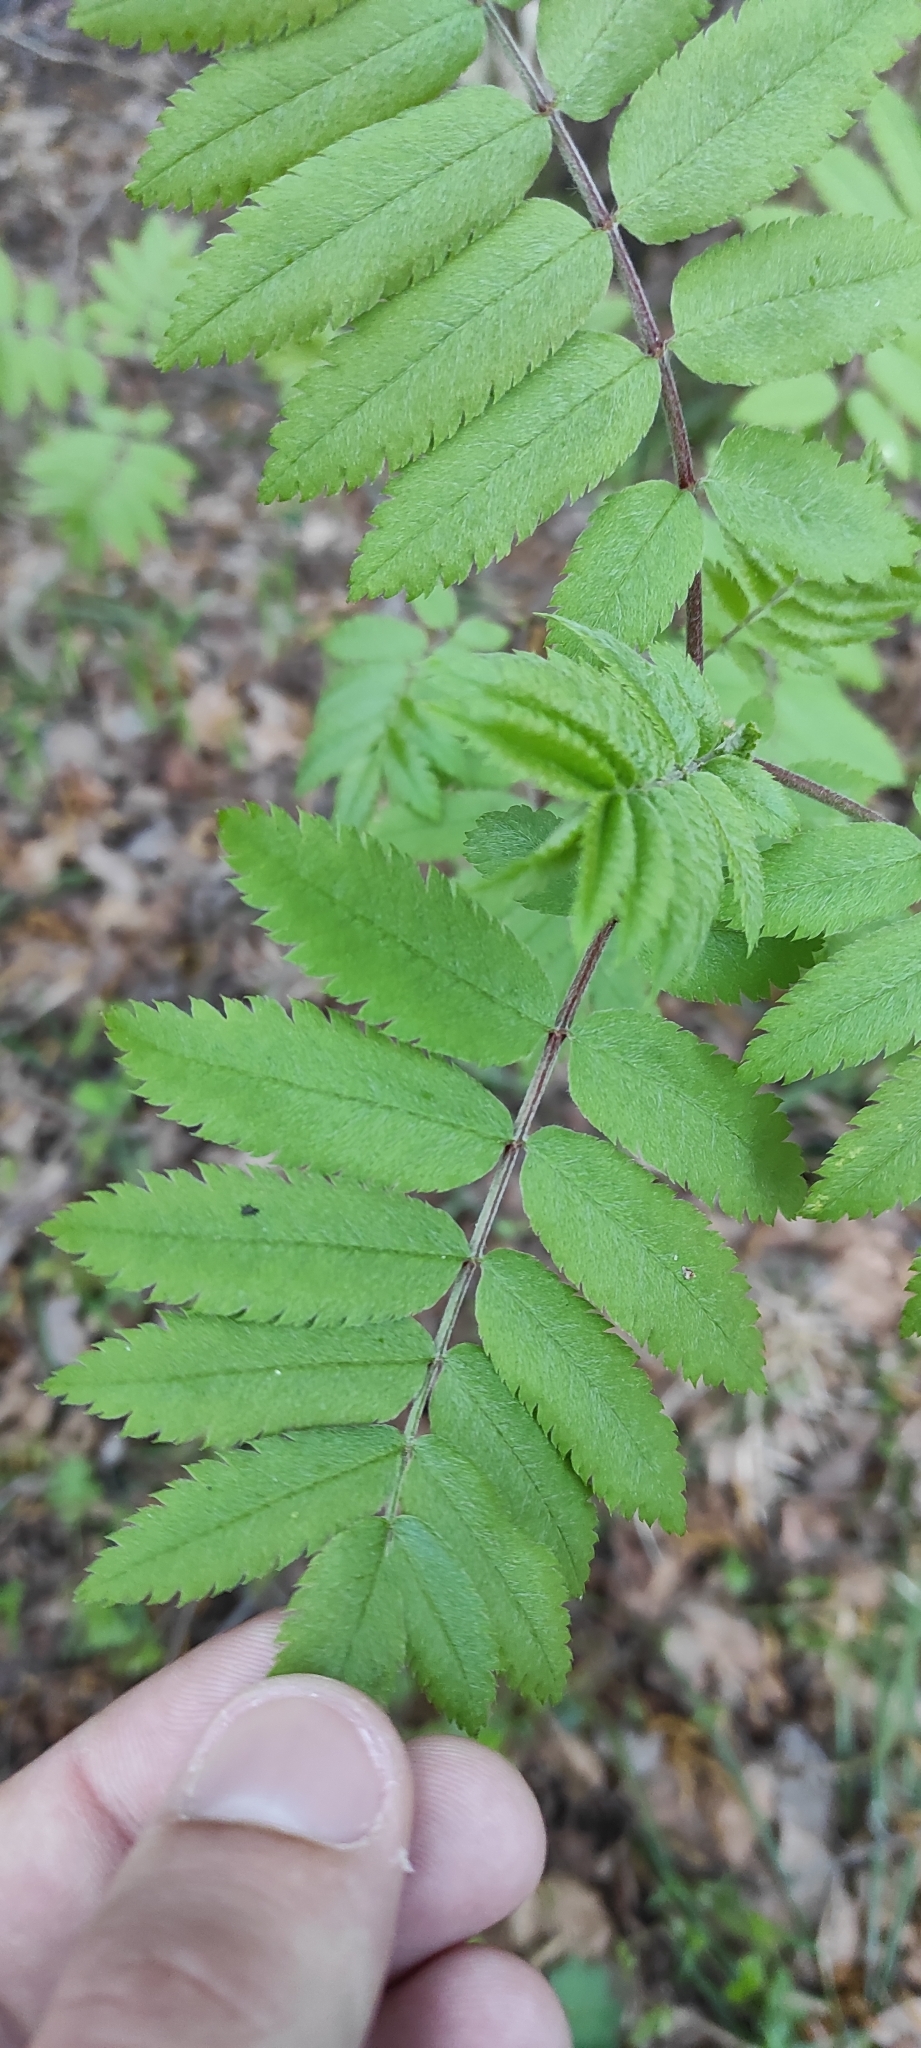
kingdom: Plantae
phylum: Tracheophyta
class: Magnoliopsida
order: Rosales
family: Rosaceae
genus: Sorbus
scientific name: Sorbus aucuparia
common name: Rowan
